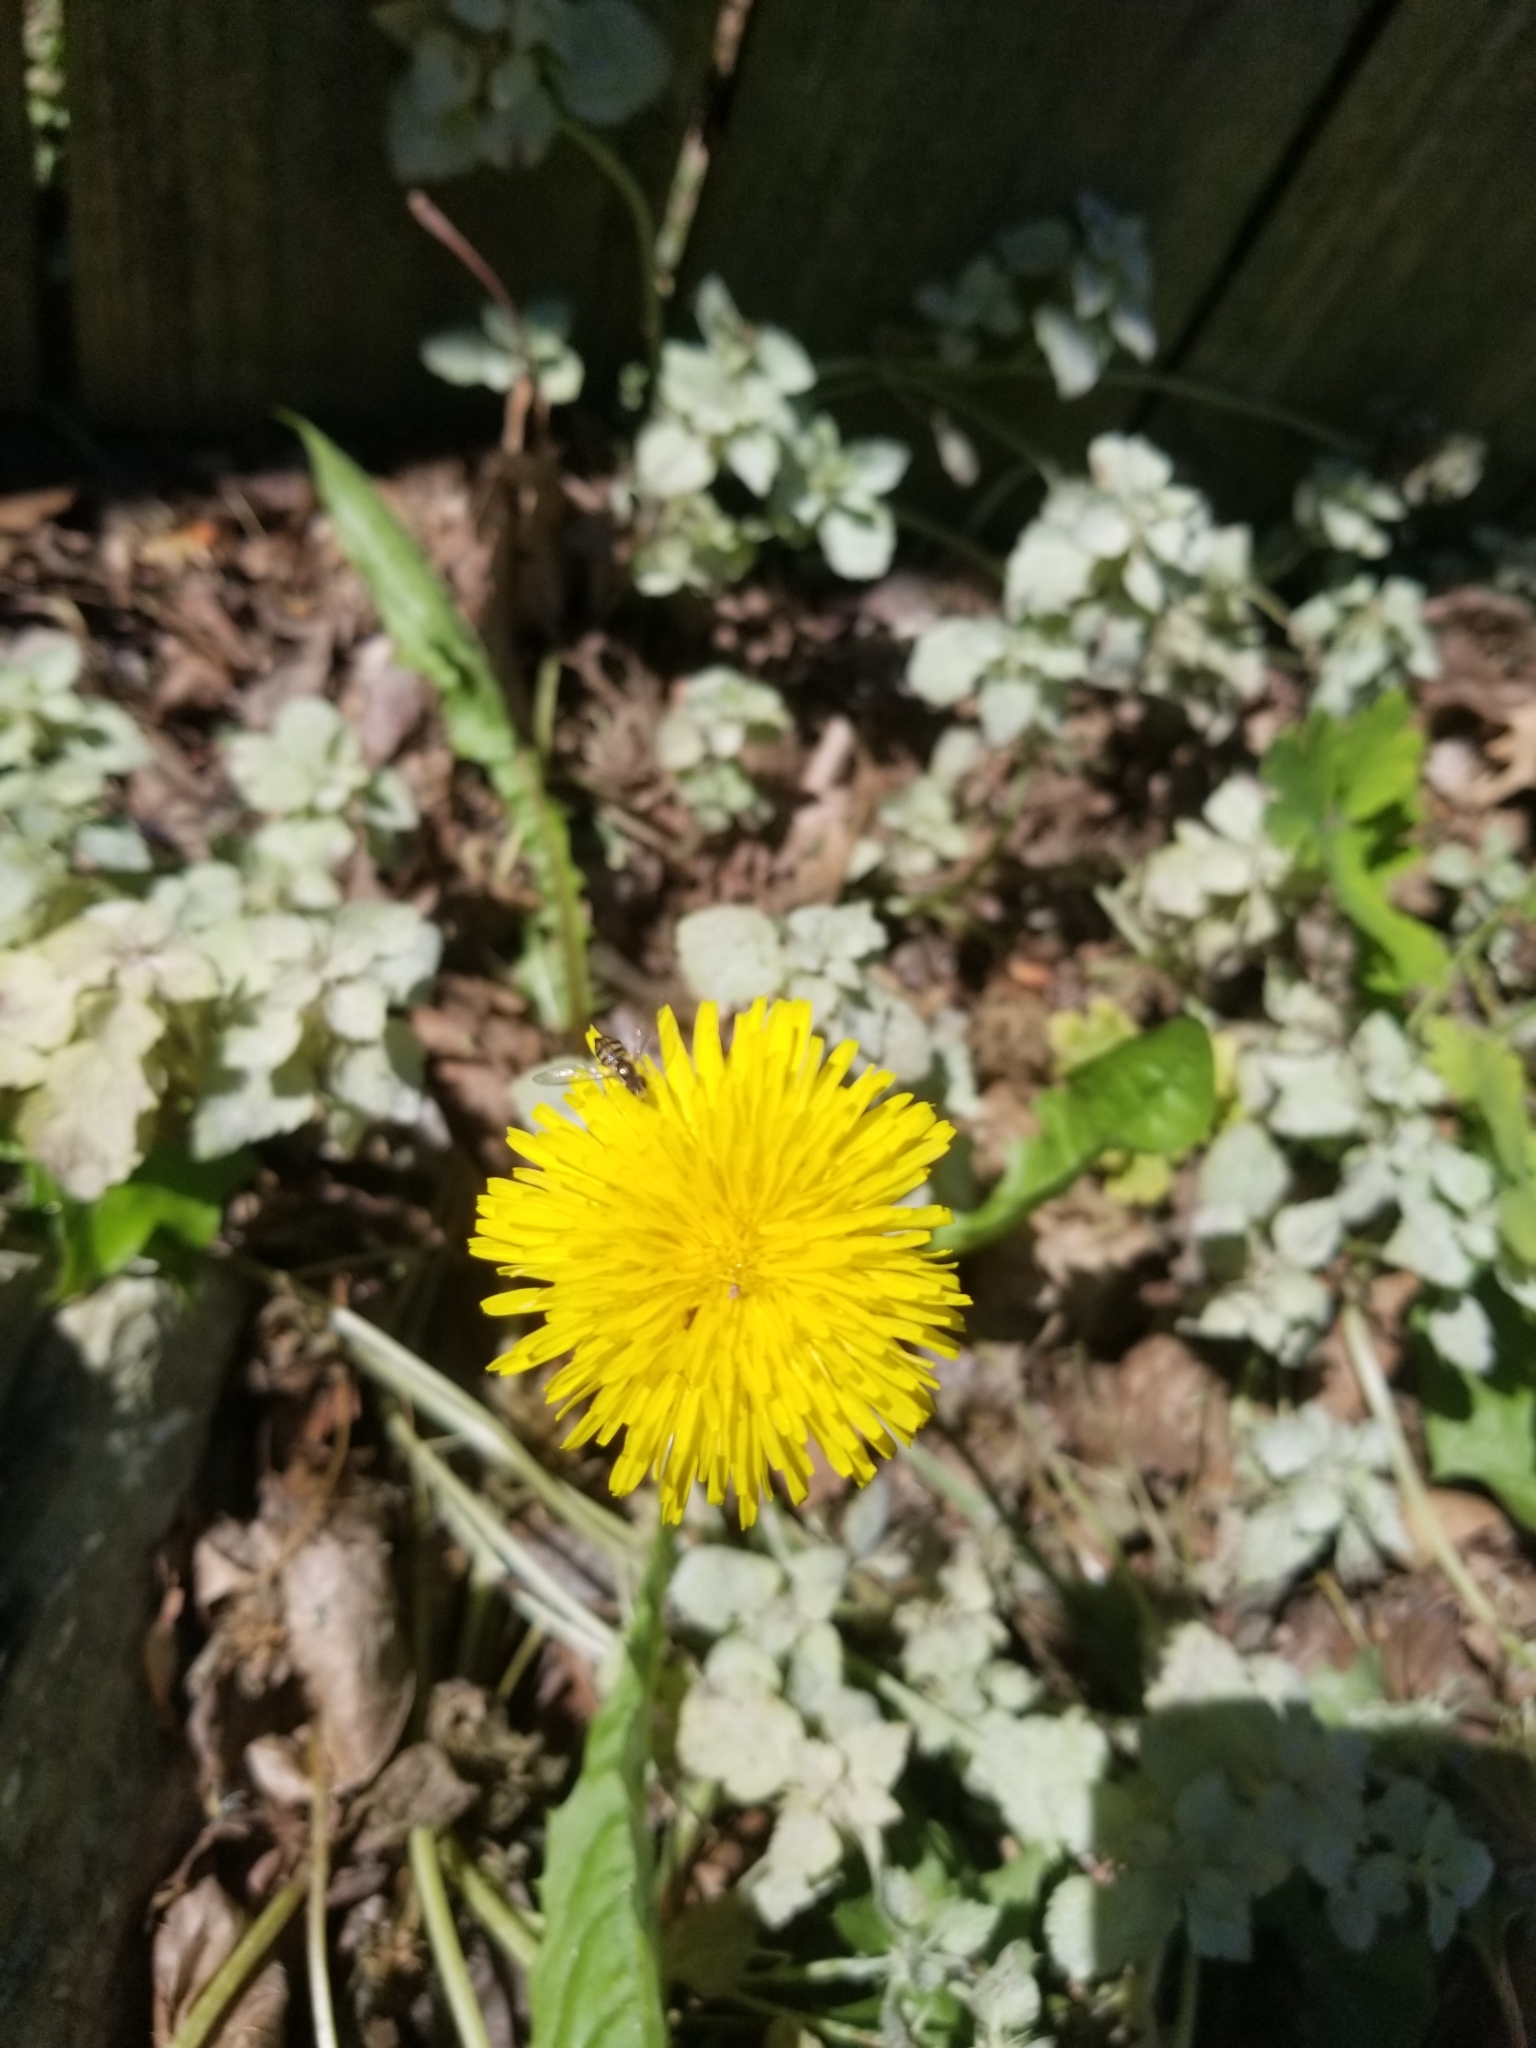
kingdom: Plantae
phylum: Tracheophyta
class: Magnoliopsida
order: Asterales
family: Asteraceae
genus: Taraxacum
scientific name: Taraxacum officinale
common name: Common dandelion
